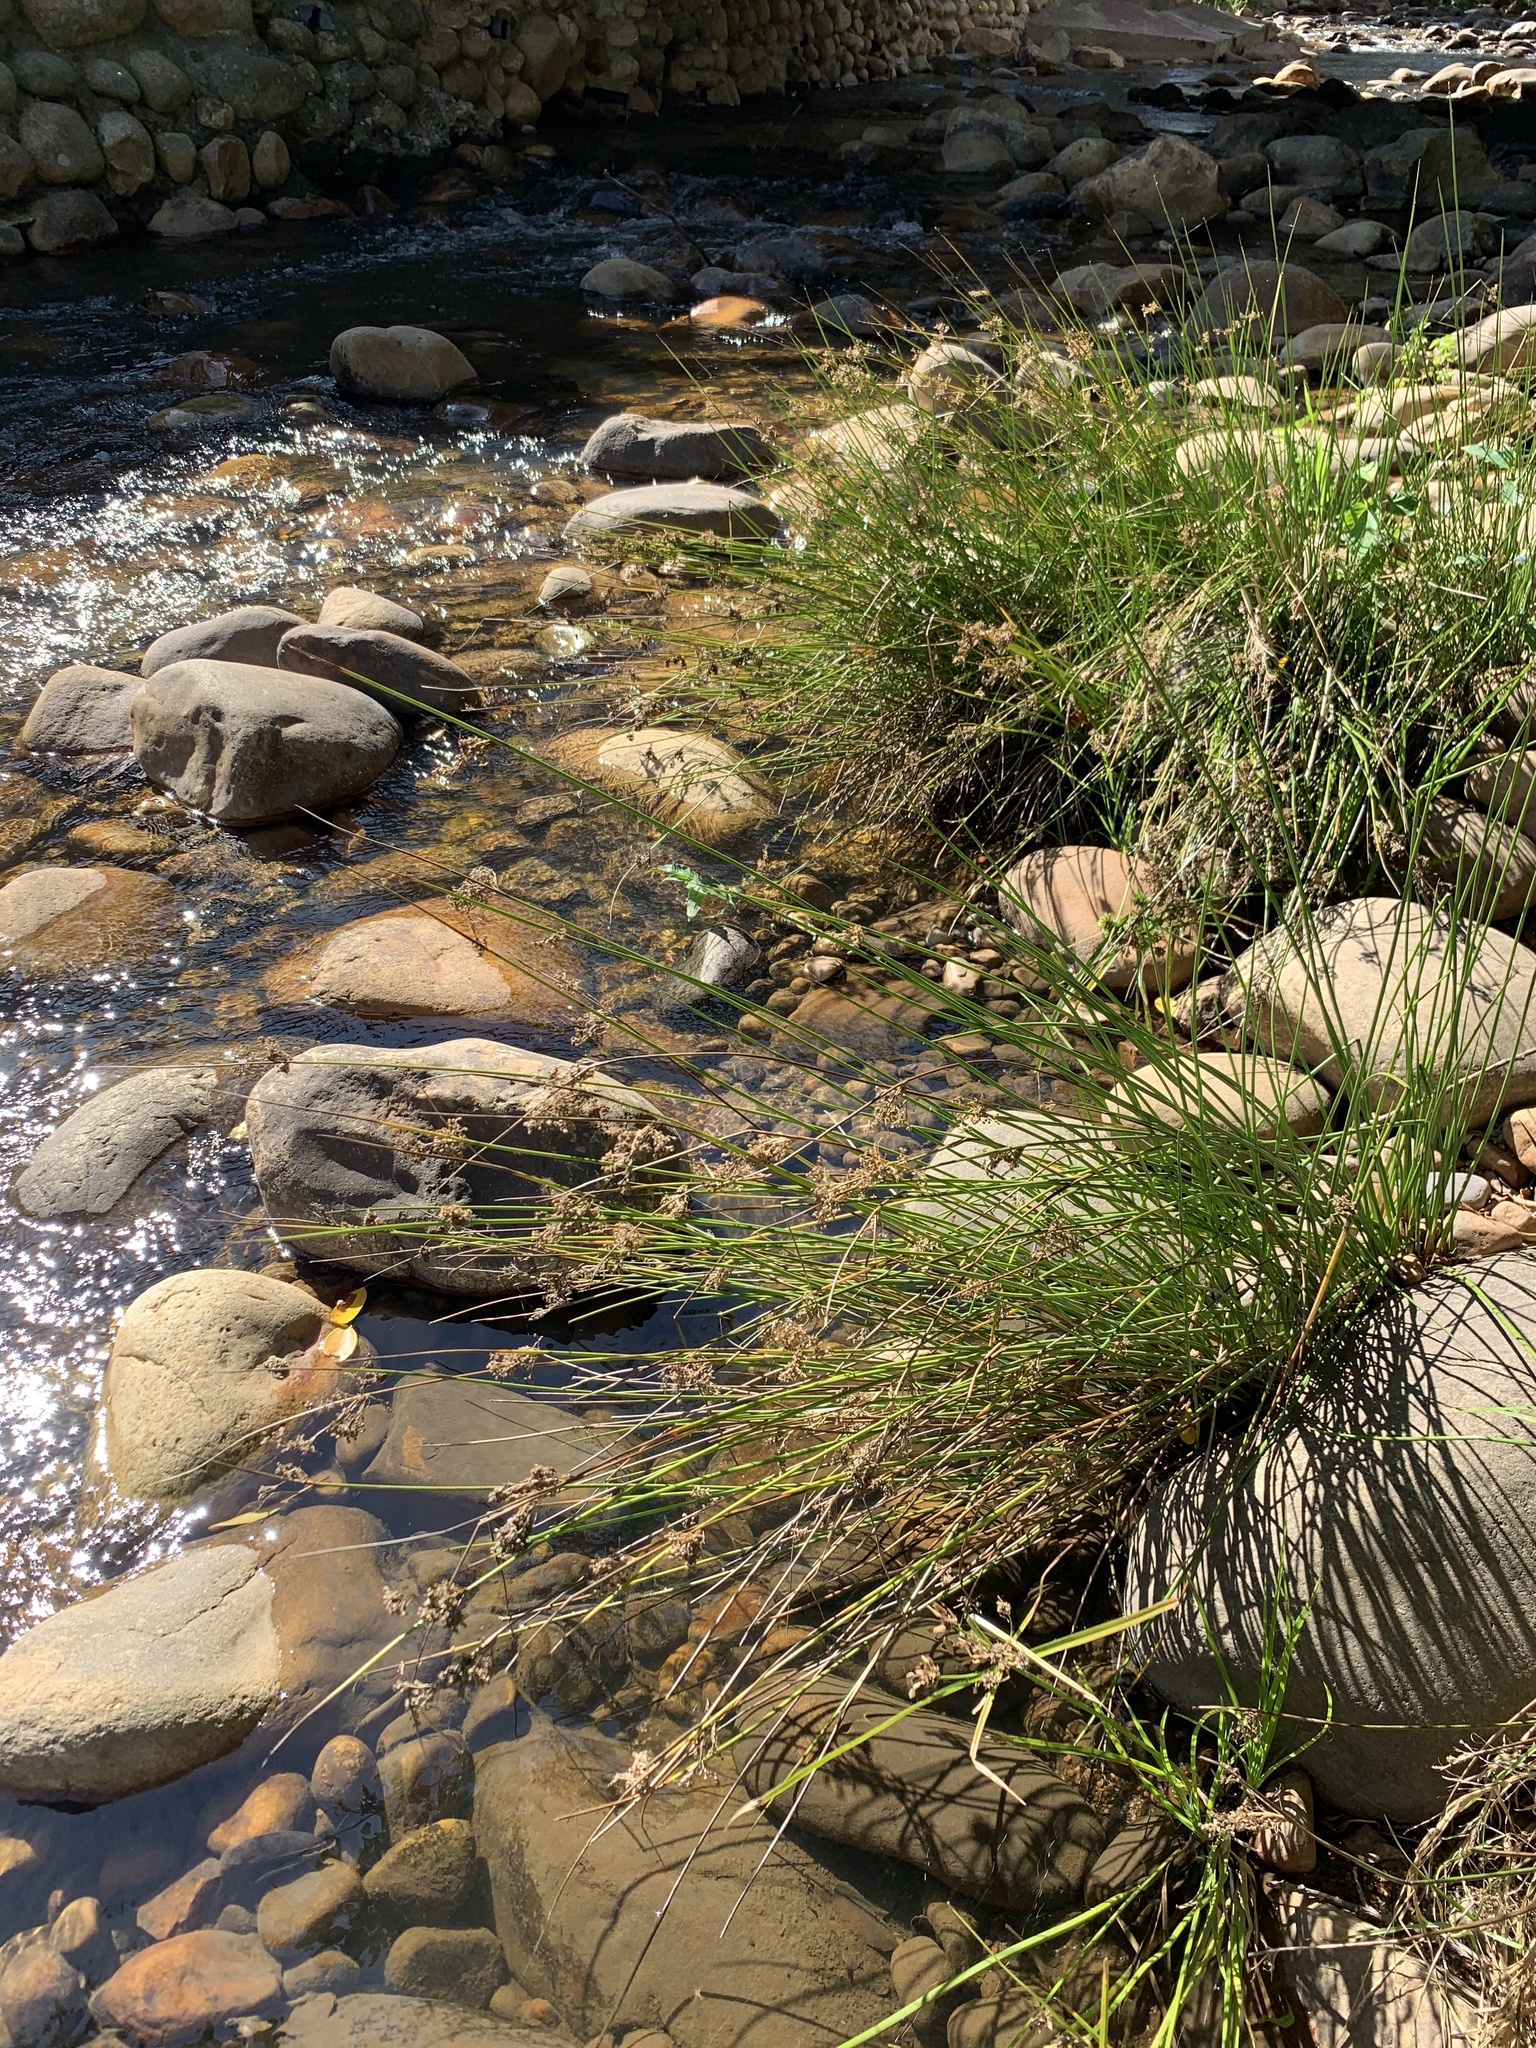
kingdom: Plantae
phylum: Tracheophyta
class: Liliopsida
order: Poales
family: Juncaceae
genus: Juncus
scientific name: Juncus effusus
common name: Soft rush
